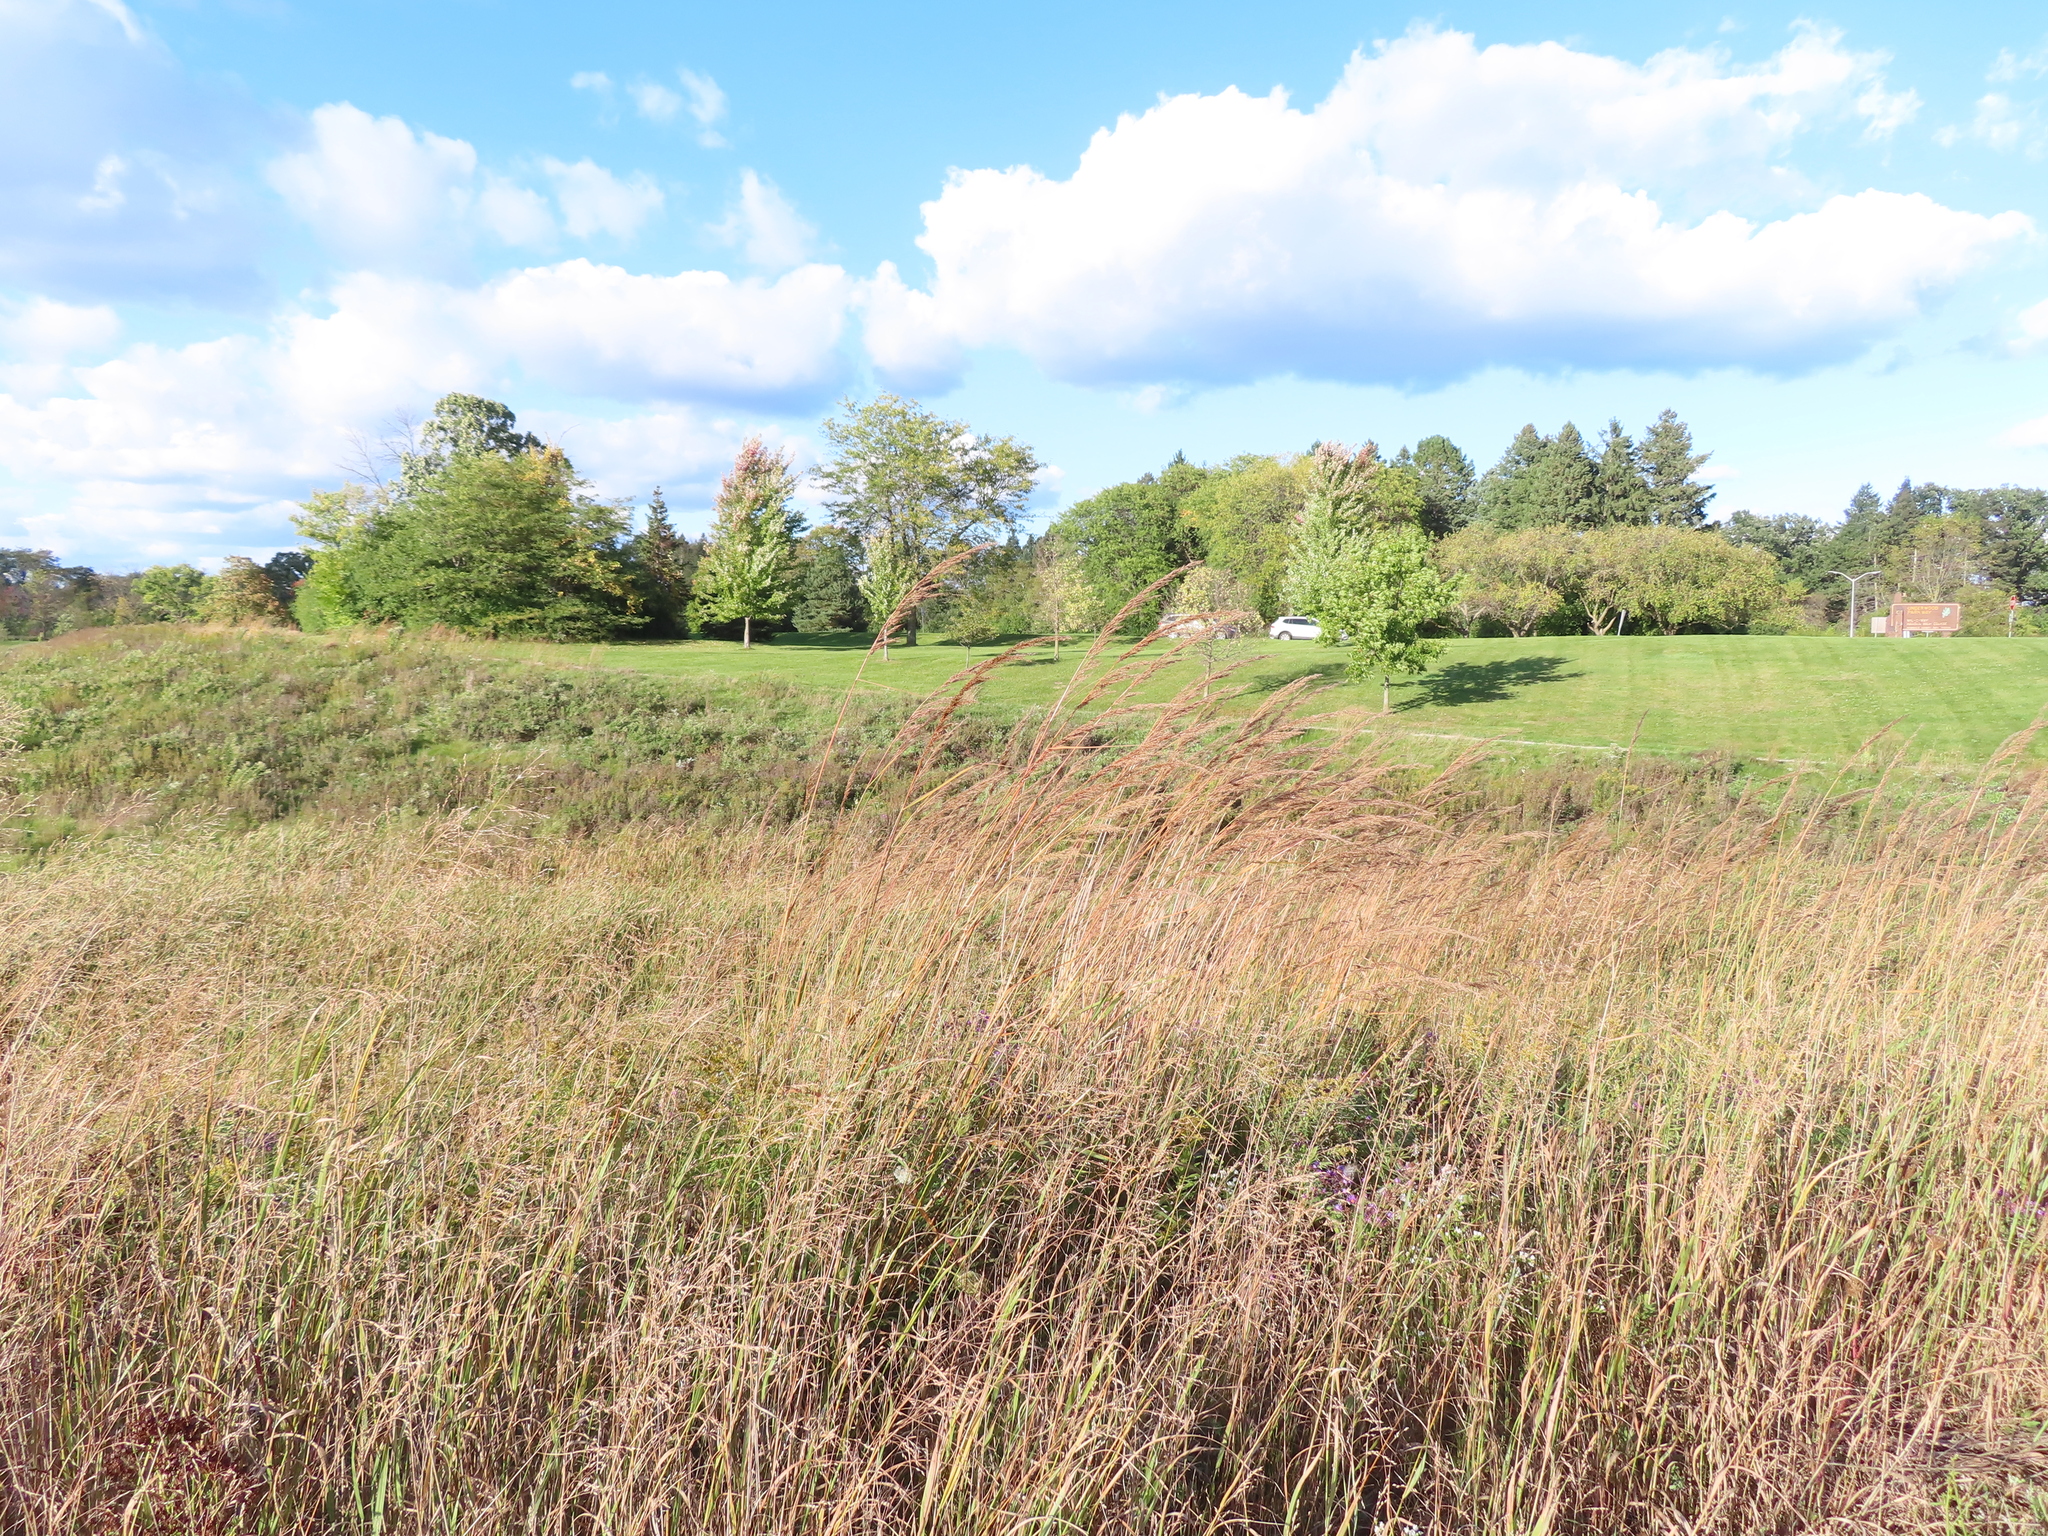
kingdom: Plantae
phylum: Tracheophyta
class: Liliopsida
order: Poales
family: Poaceae
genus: Sorghastrum
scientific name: Sorghastrum nutans
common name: Indian grass
